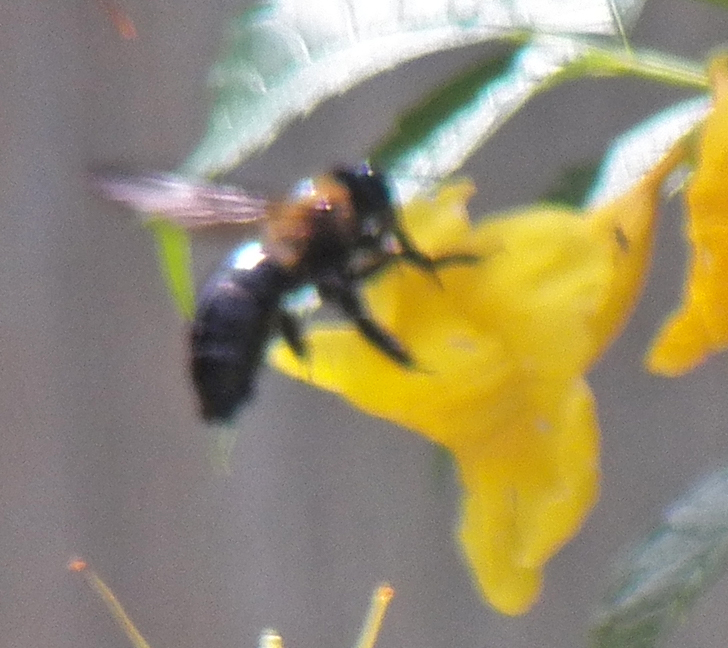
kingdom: Animalia
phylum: Arthropoda
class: Insecta
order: Hymenoptera
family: Apidae
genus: Xylocopa
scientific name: Xylocopa virginica
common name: Carpenter bee
